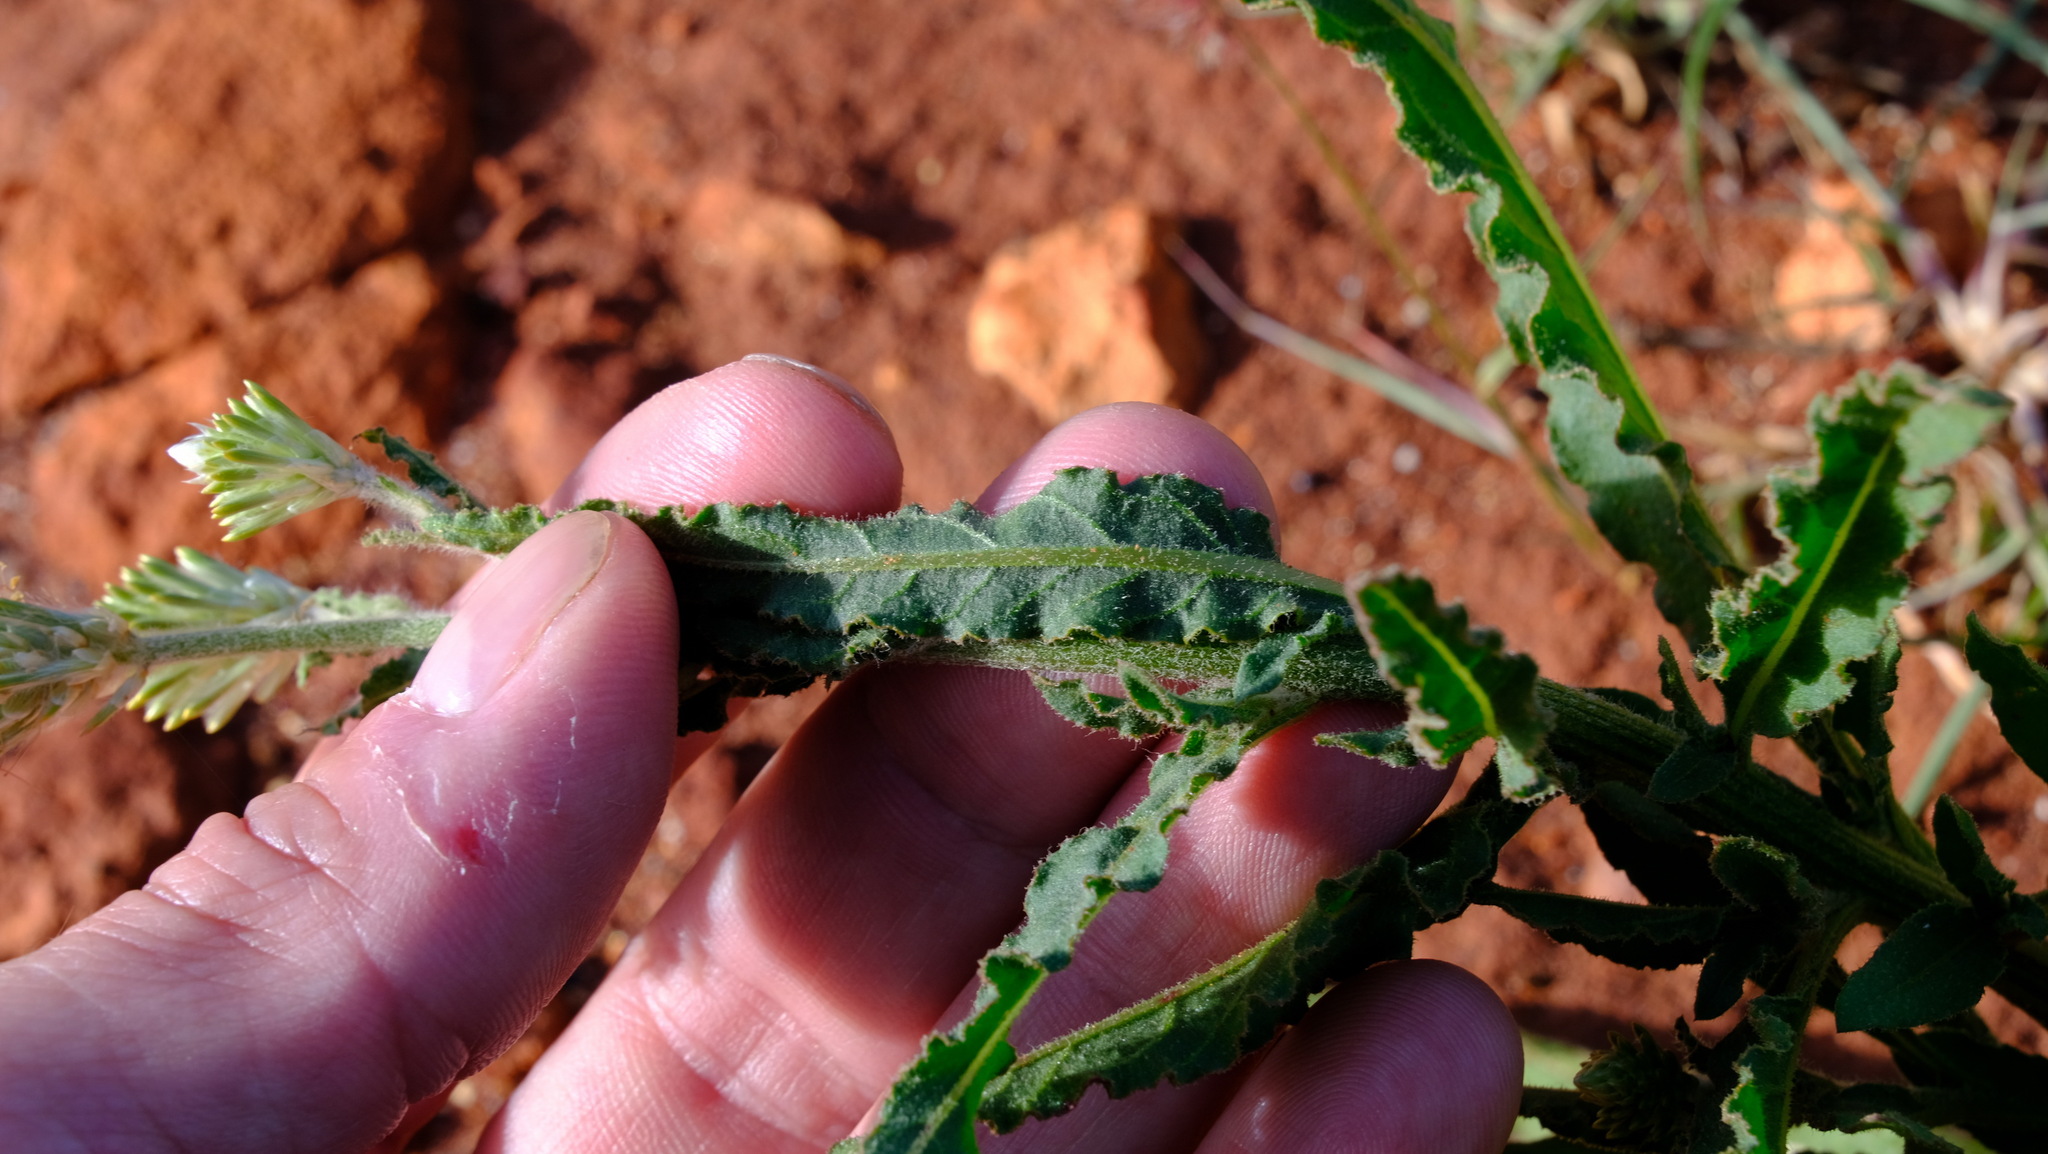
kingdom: Plantae
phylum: Tracheophyta
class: Magnoliopsida
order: Caryophyllales
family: Amaranthaceae
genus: Ptilotus
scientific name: Ptilotus polystachyus
